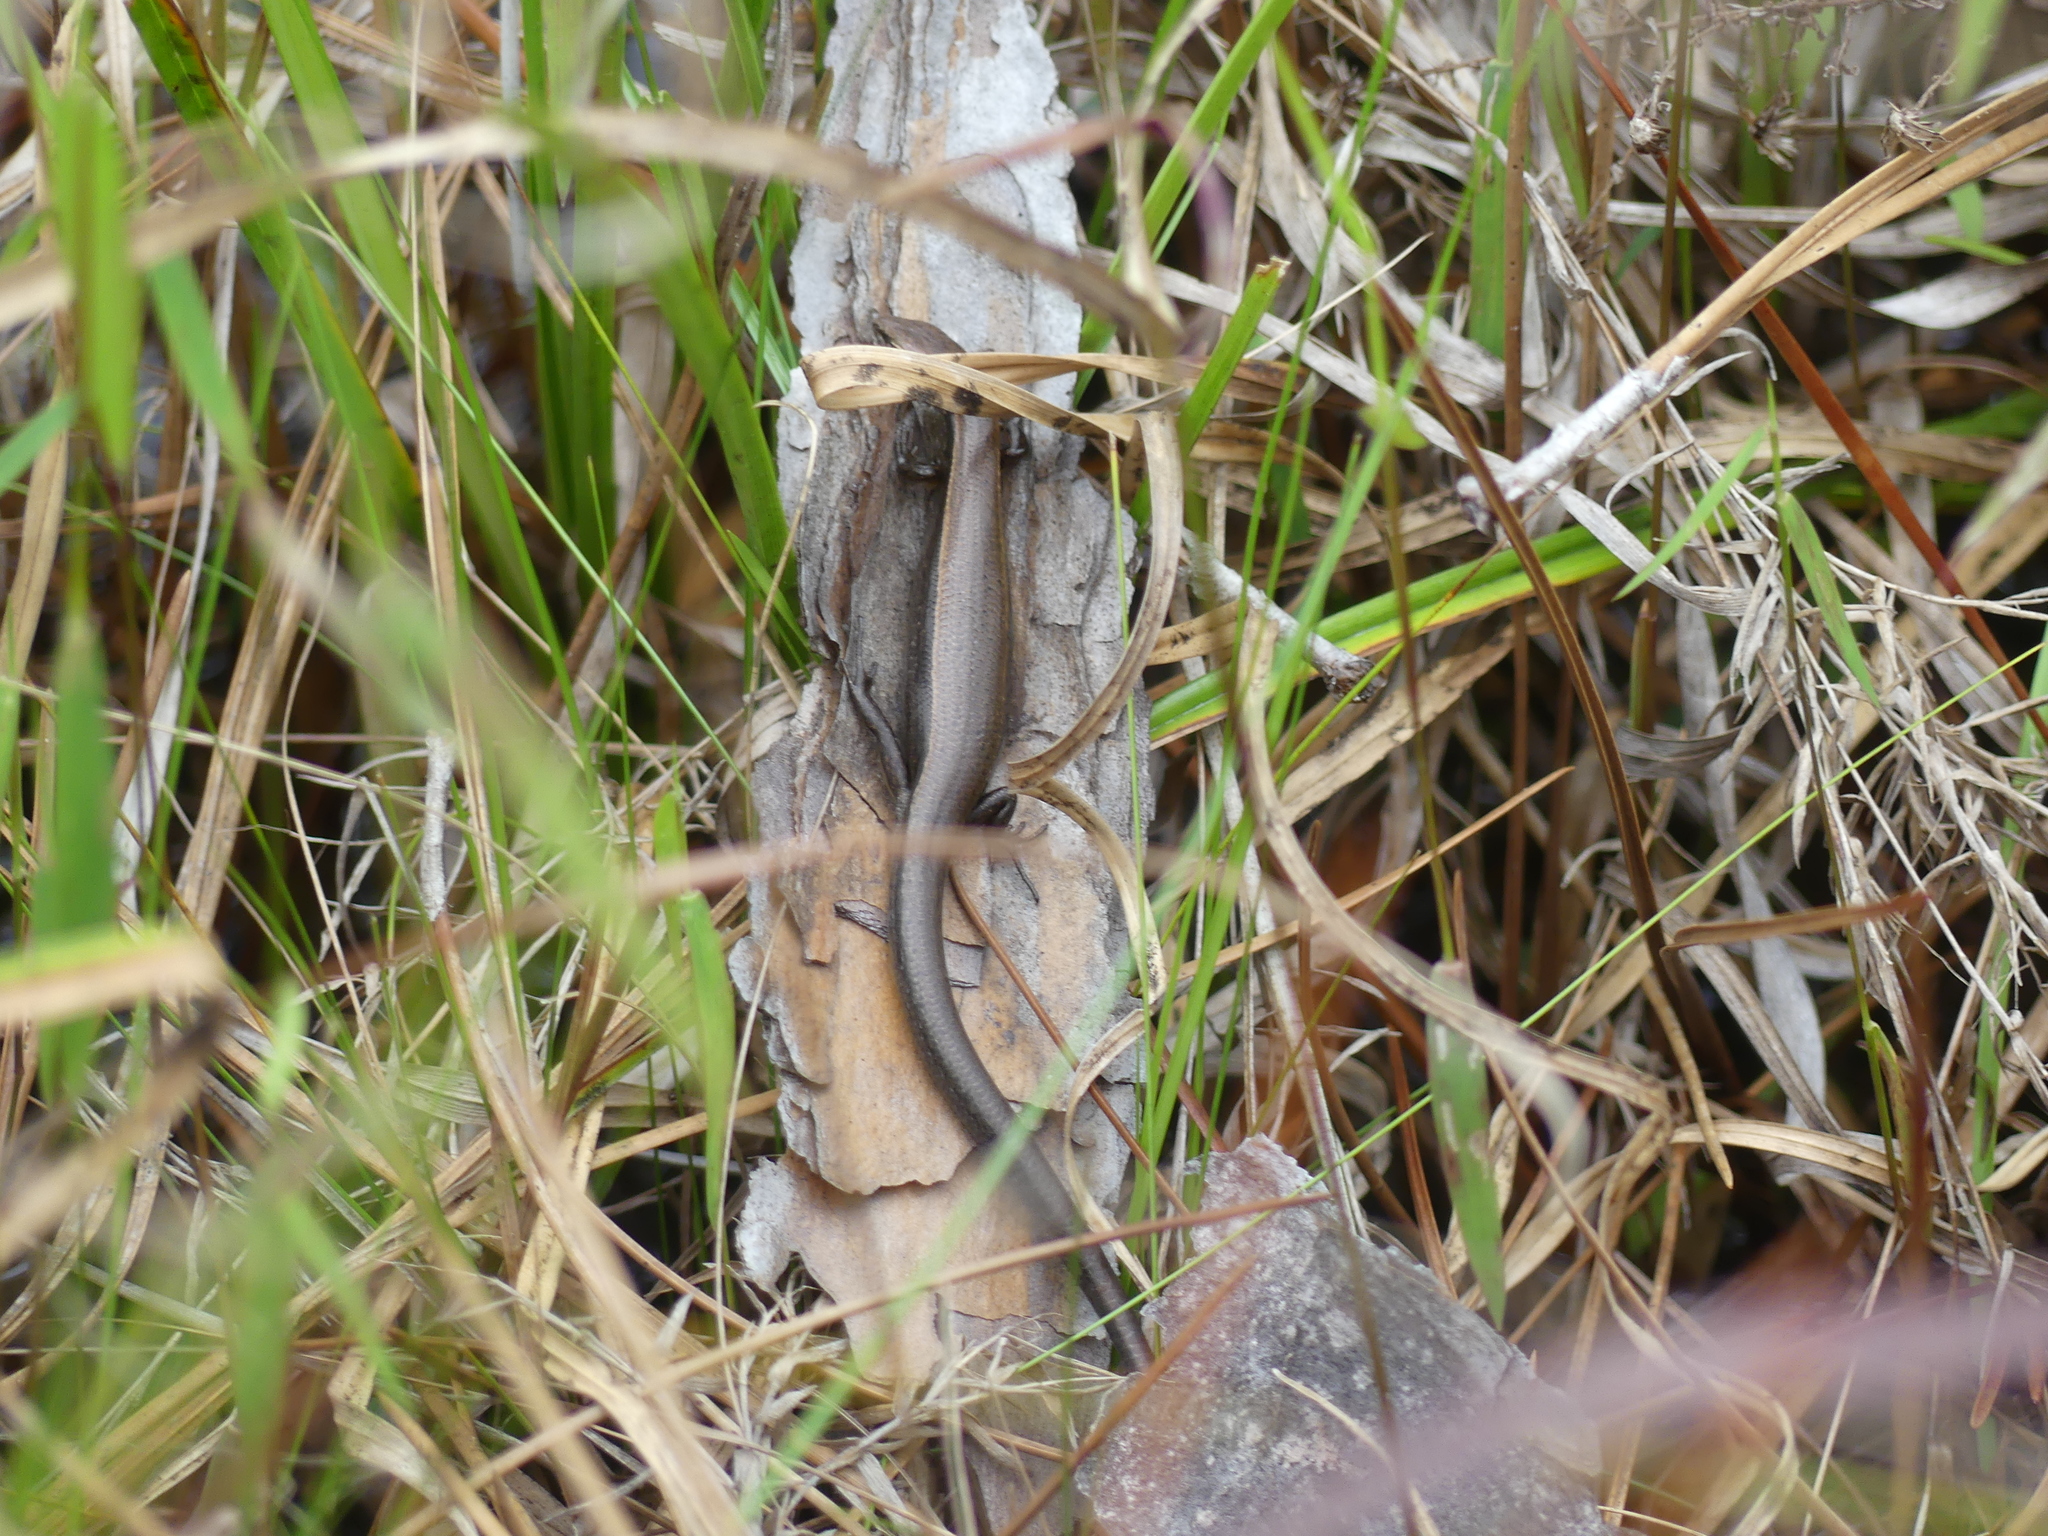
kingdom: Animalia
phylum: Chordata
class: Squamata
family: Scincidae
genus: Scincella
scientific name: Scincella lateralis
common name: Ground skink
